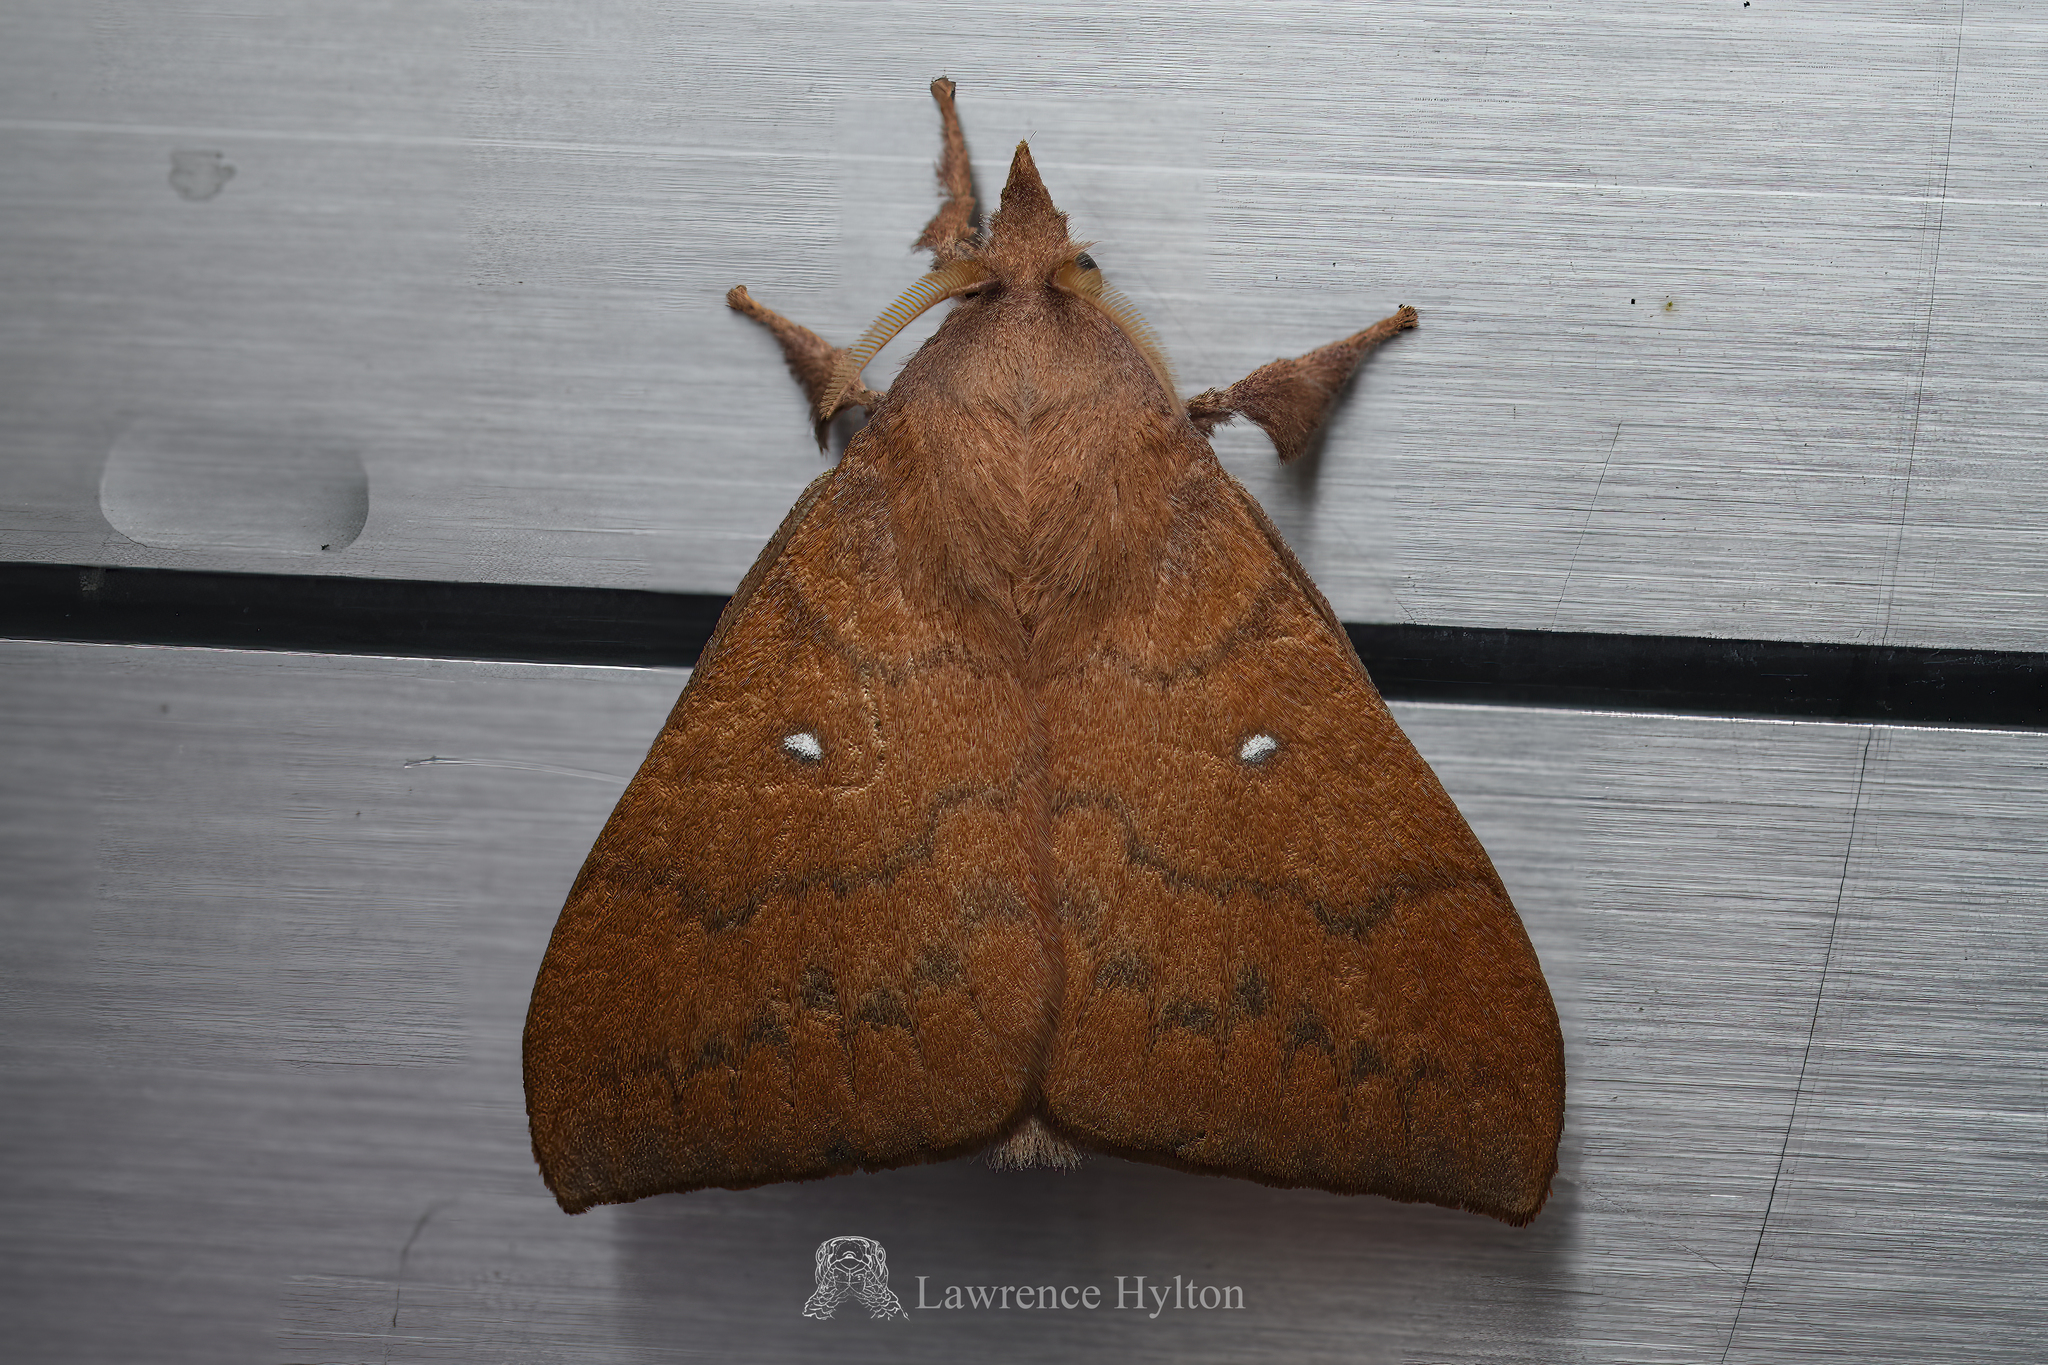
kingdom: Animalia
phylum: Arthropoda
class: Insecta
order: Lepidoptera
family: Lasiocampidae
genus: Odonestis
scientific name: Odonestis vita
